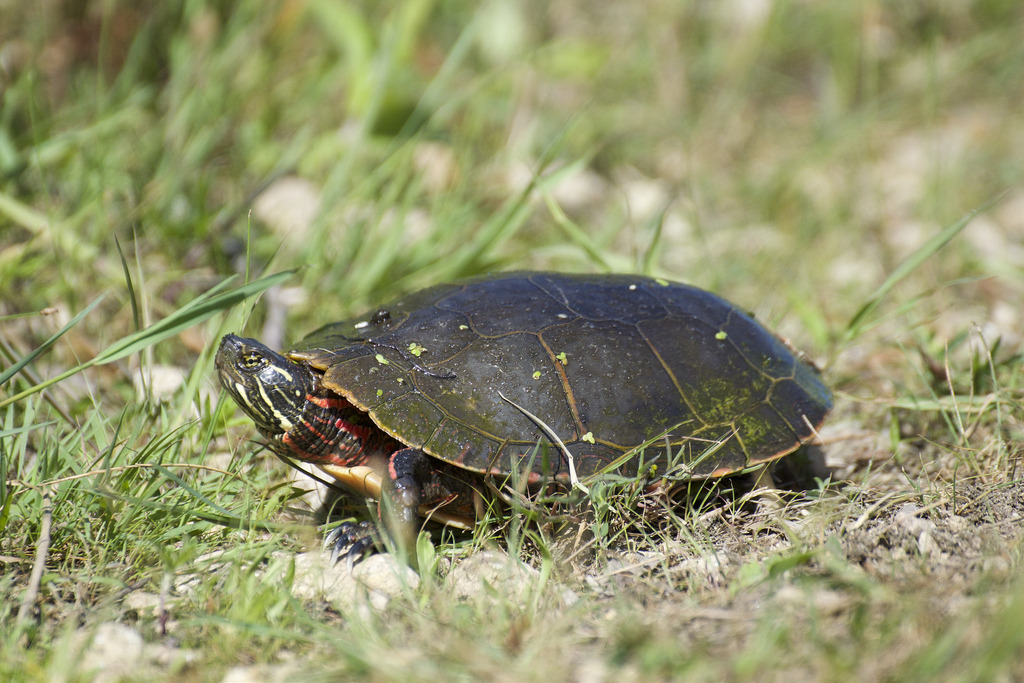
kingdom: Animalia
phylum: Chordata
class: Testudines
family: Emydidae
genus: Chrysemys
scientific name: Chrysemys picta
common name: Painted turtle
